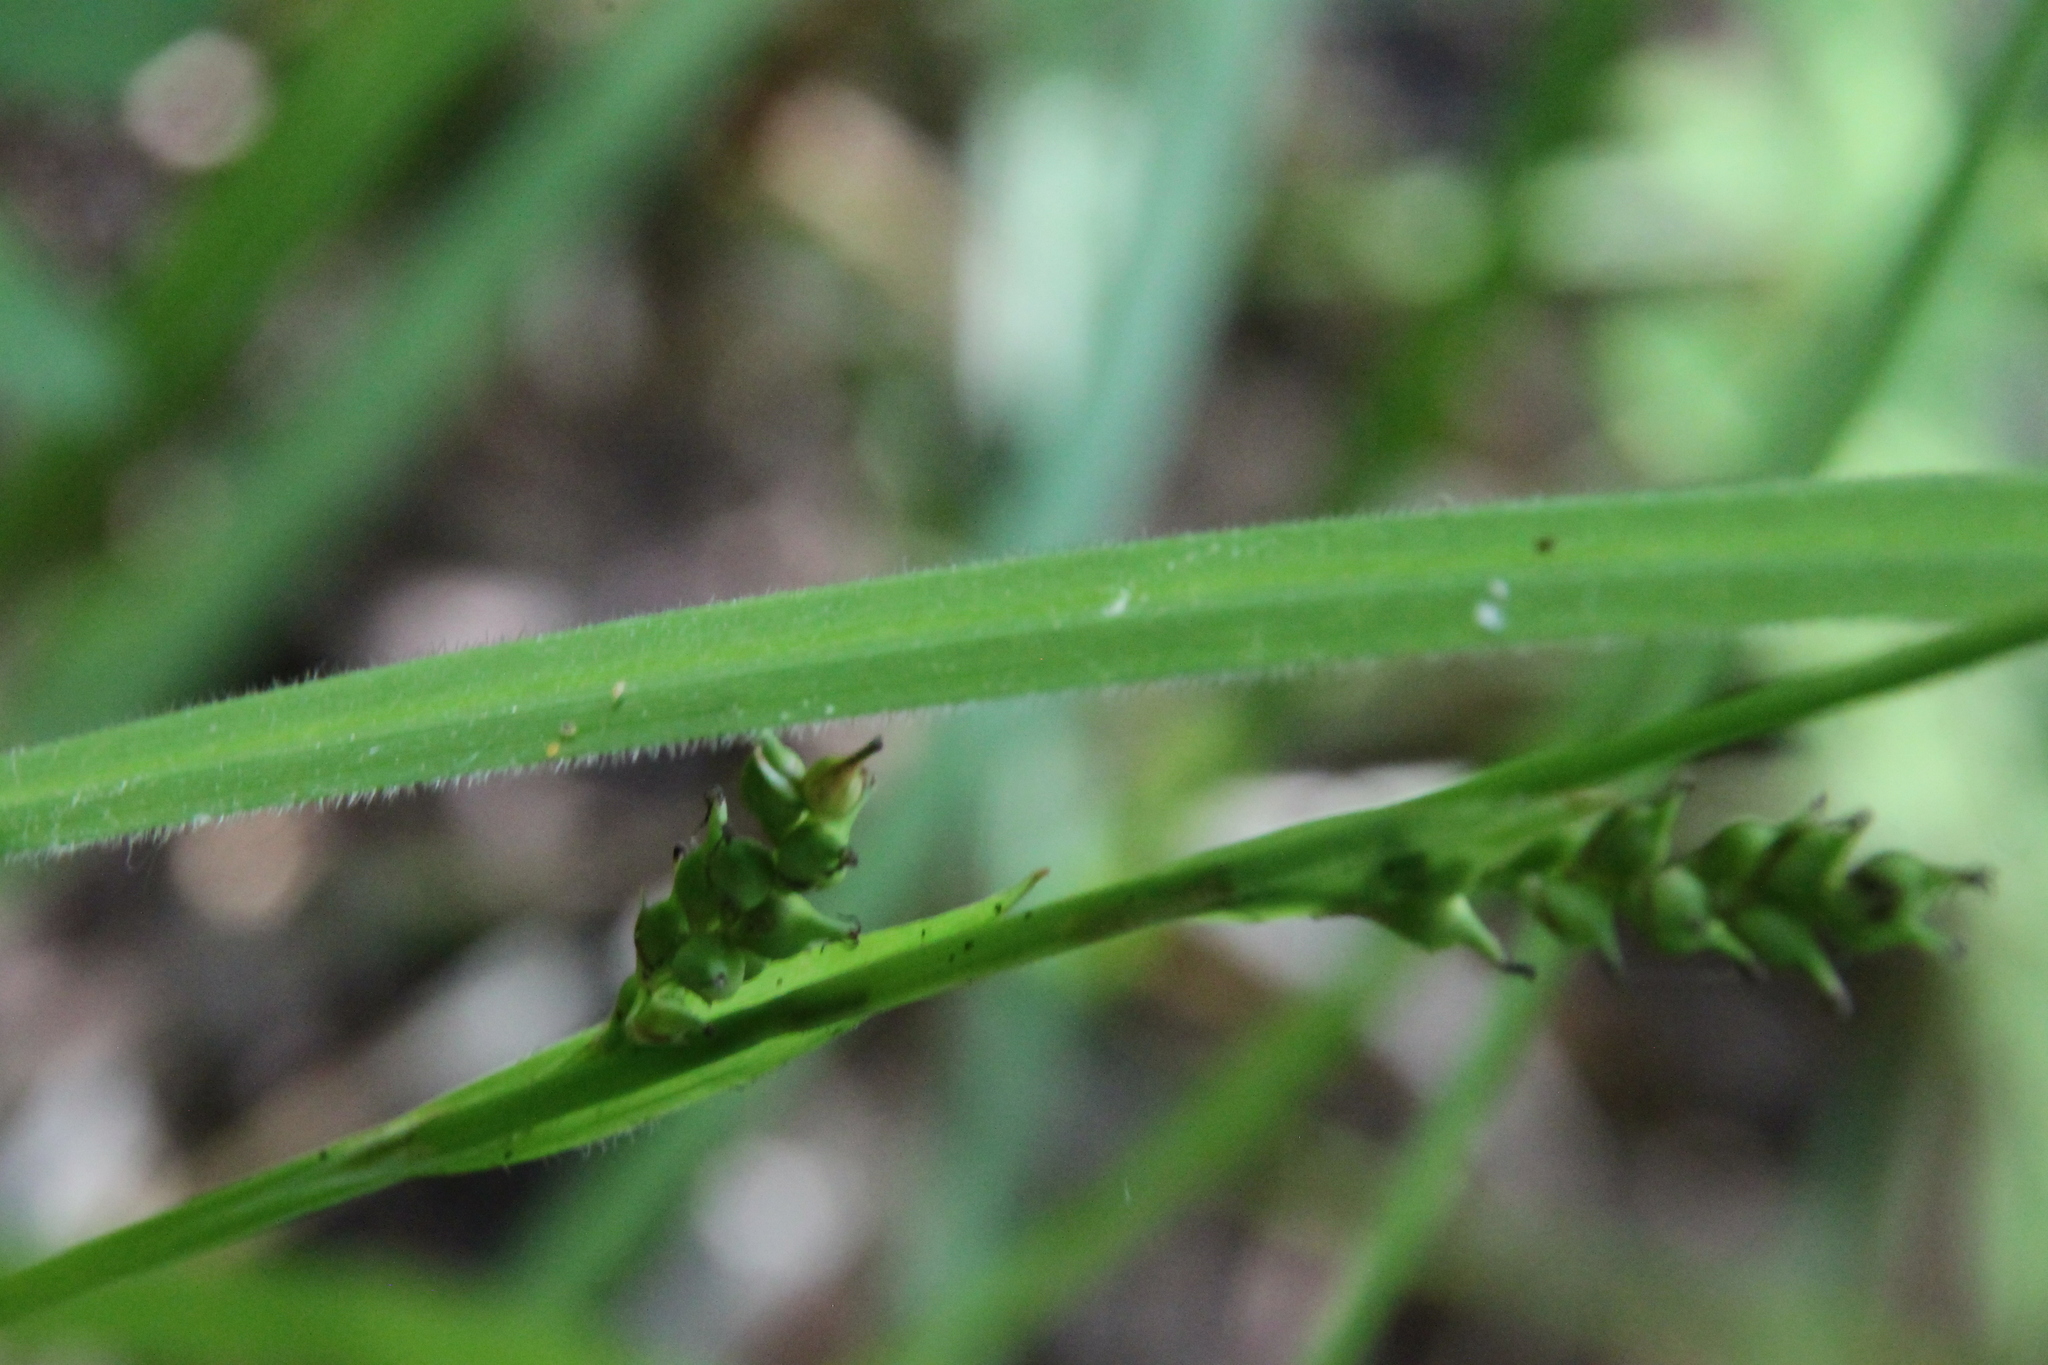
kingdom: Plantae
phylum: Tracheophyta
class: Liliopsida
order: Poales
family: Cyperaceae
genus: Carex
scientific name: Carex pilosa
